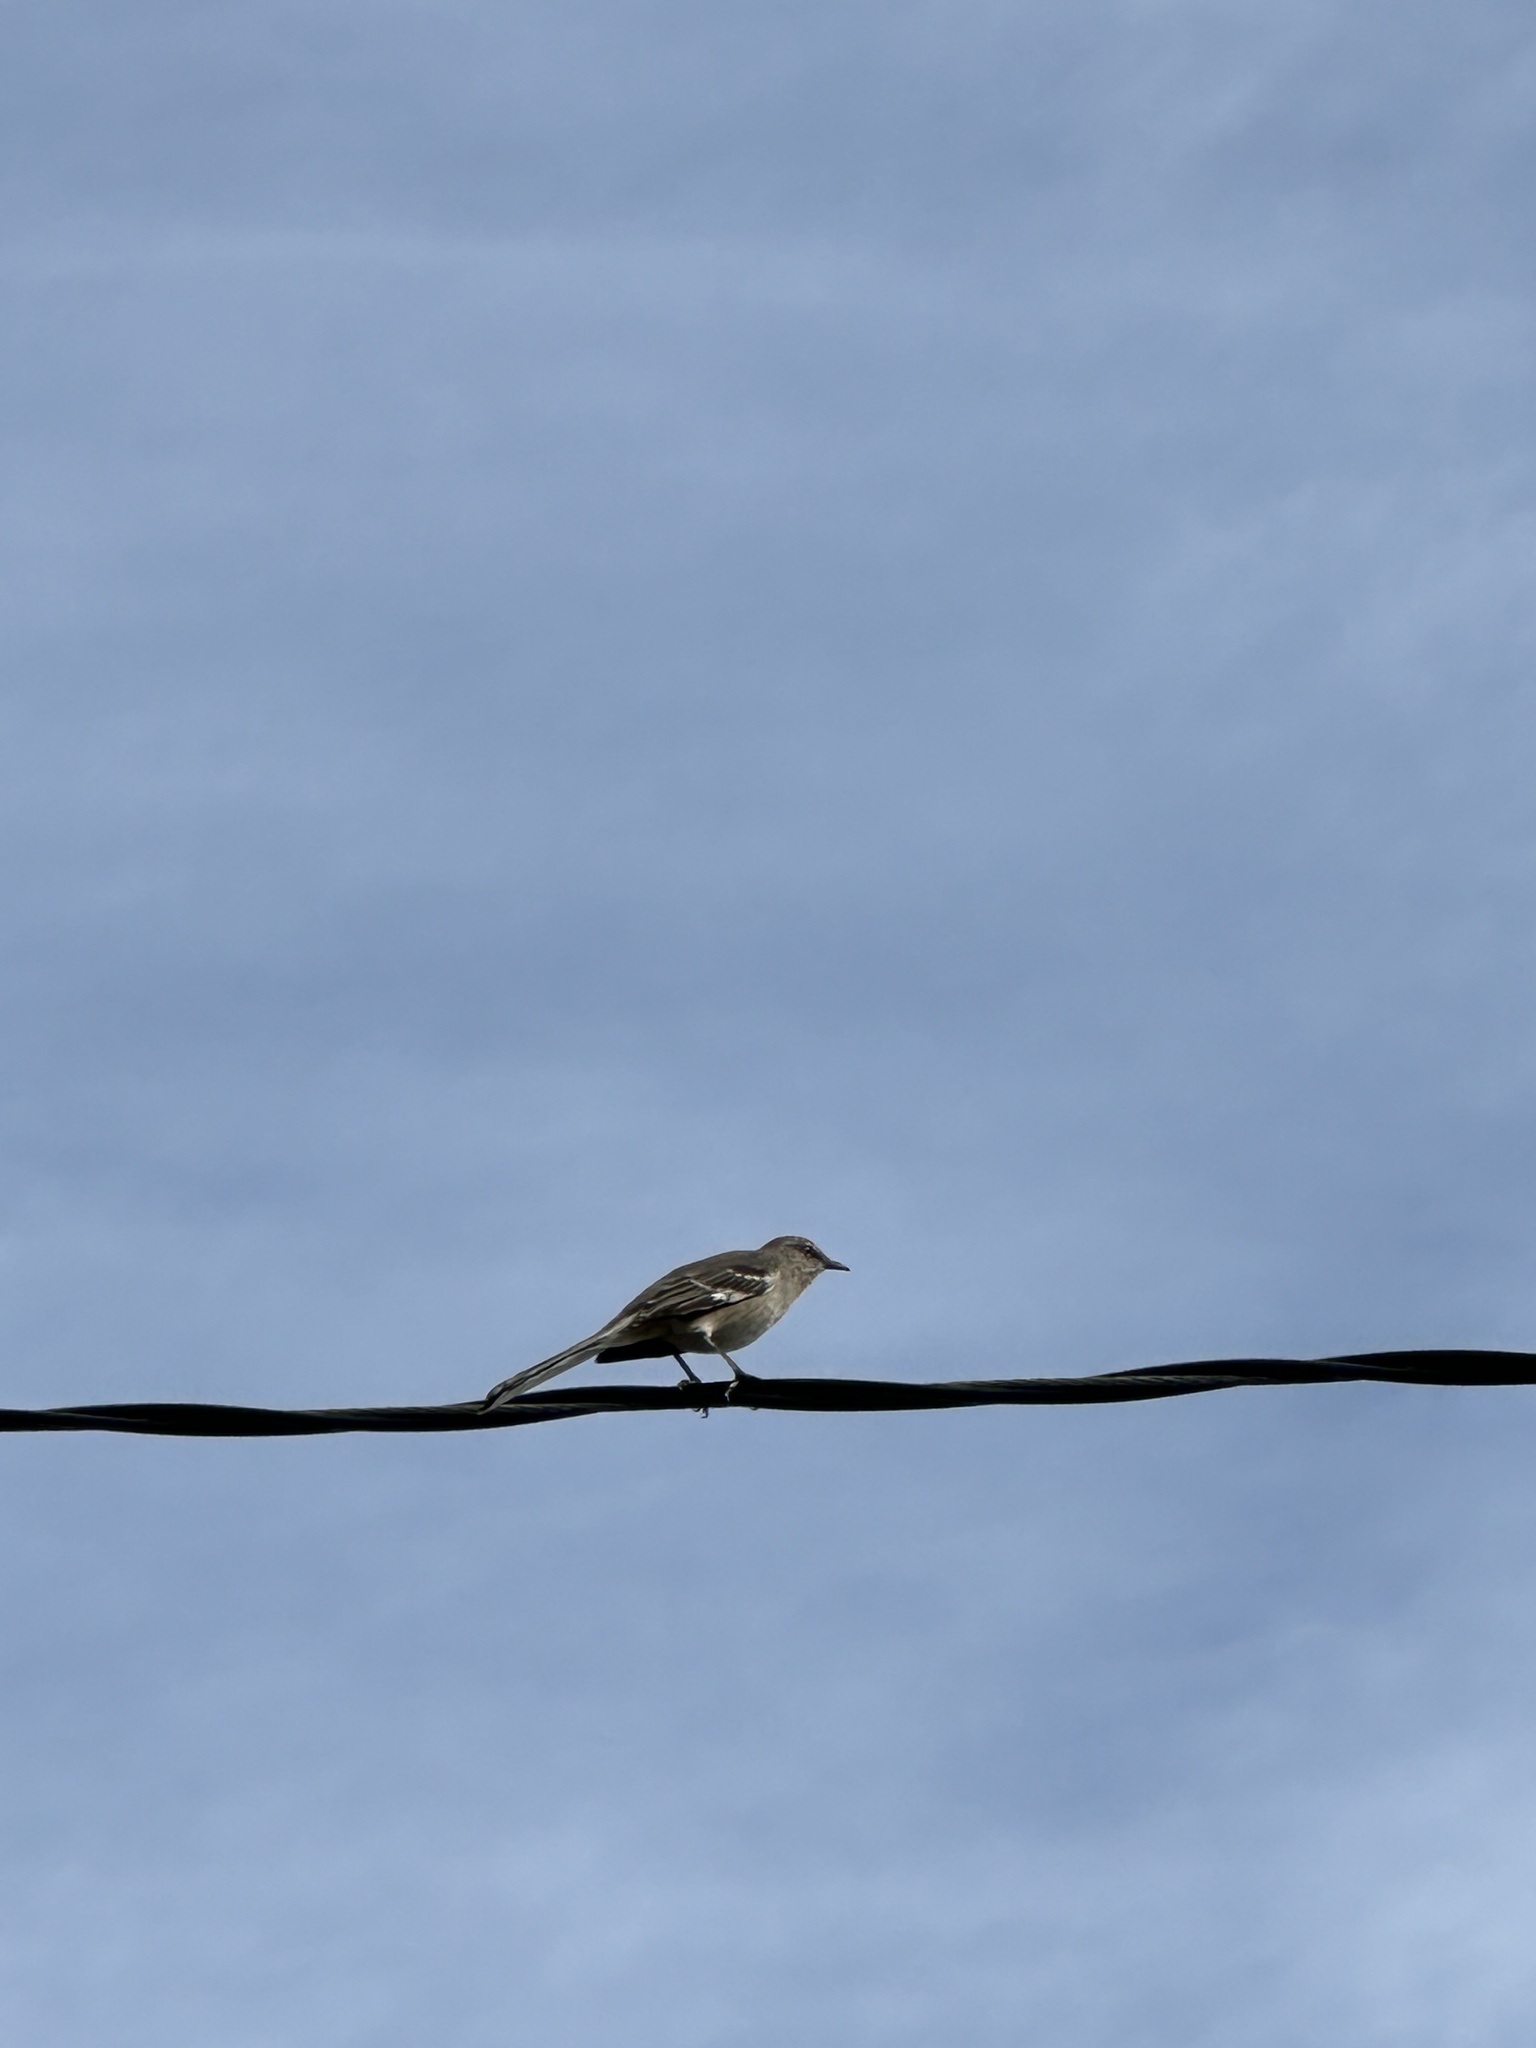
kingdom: Animalia
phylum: Chordata
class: Aves
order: Passeriformes
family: Mimidae
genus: Mimus
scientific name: Mimus polyglottos
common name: Northern mockingbird
